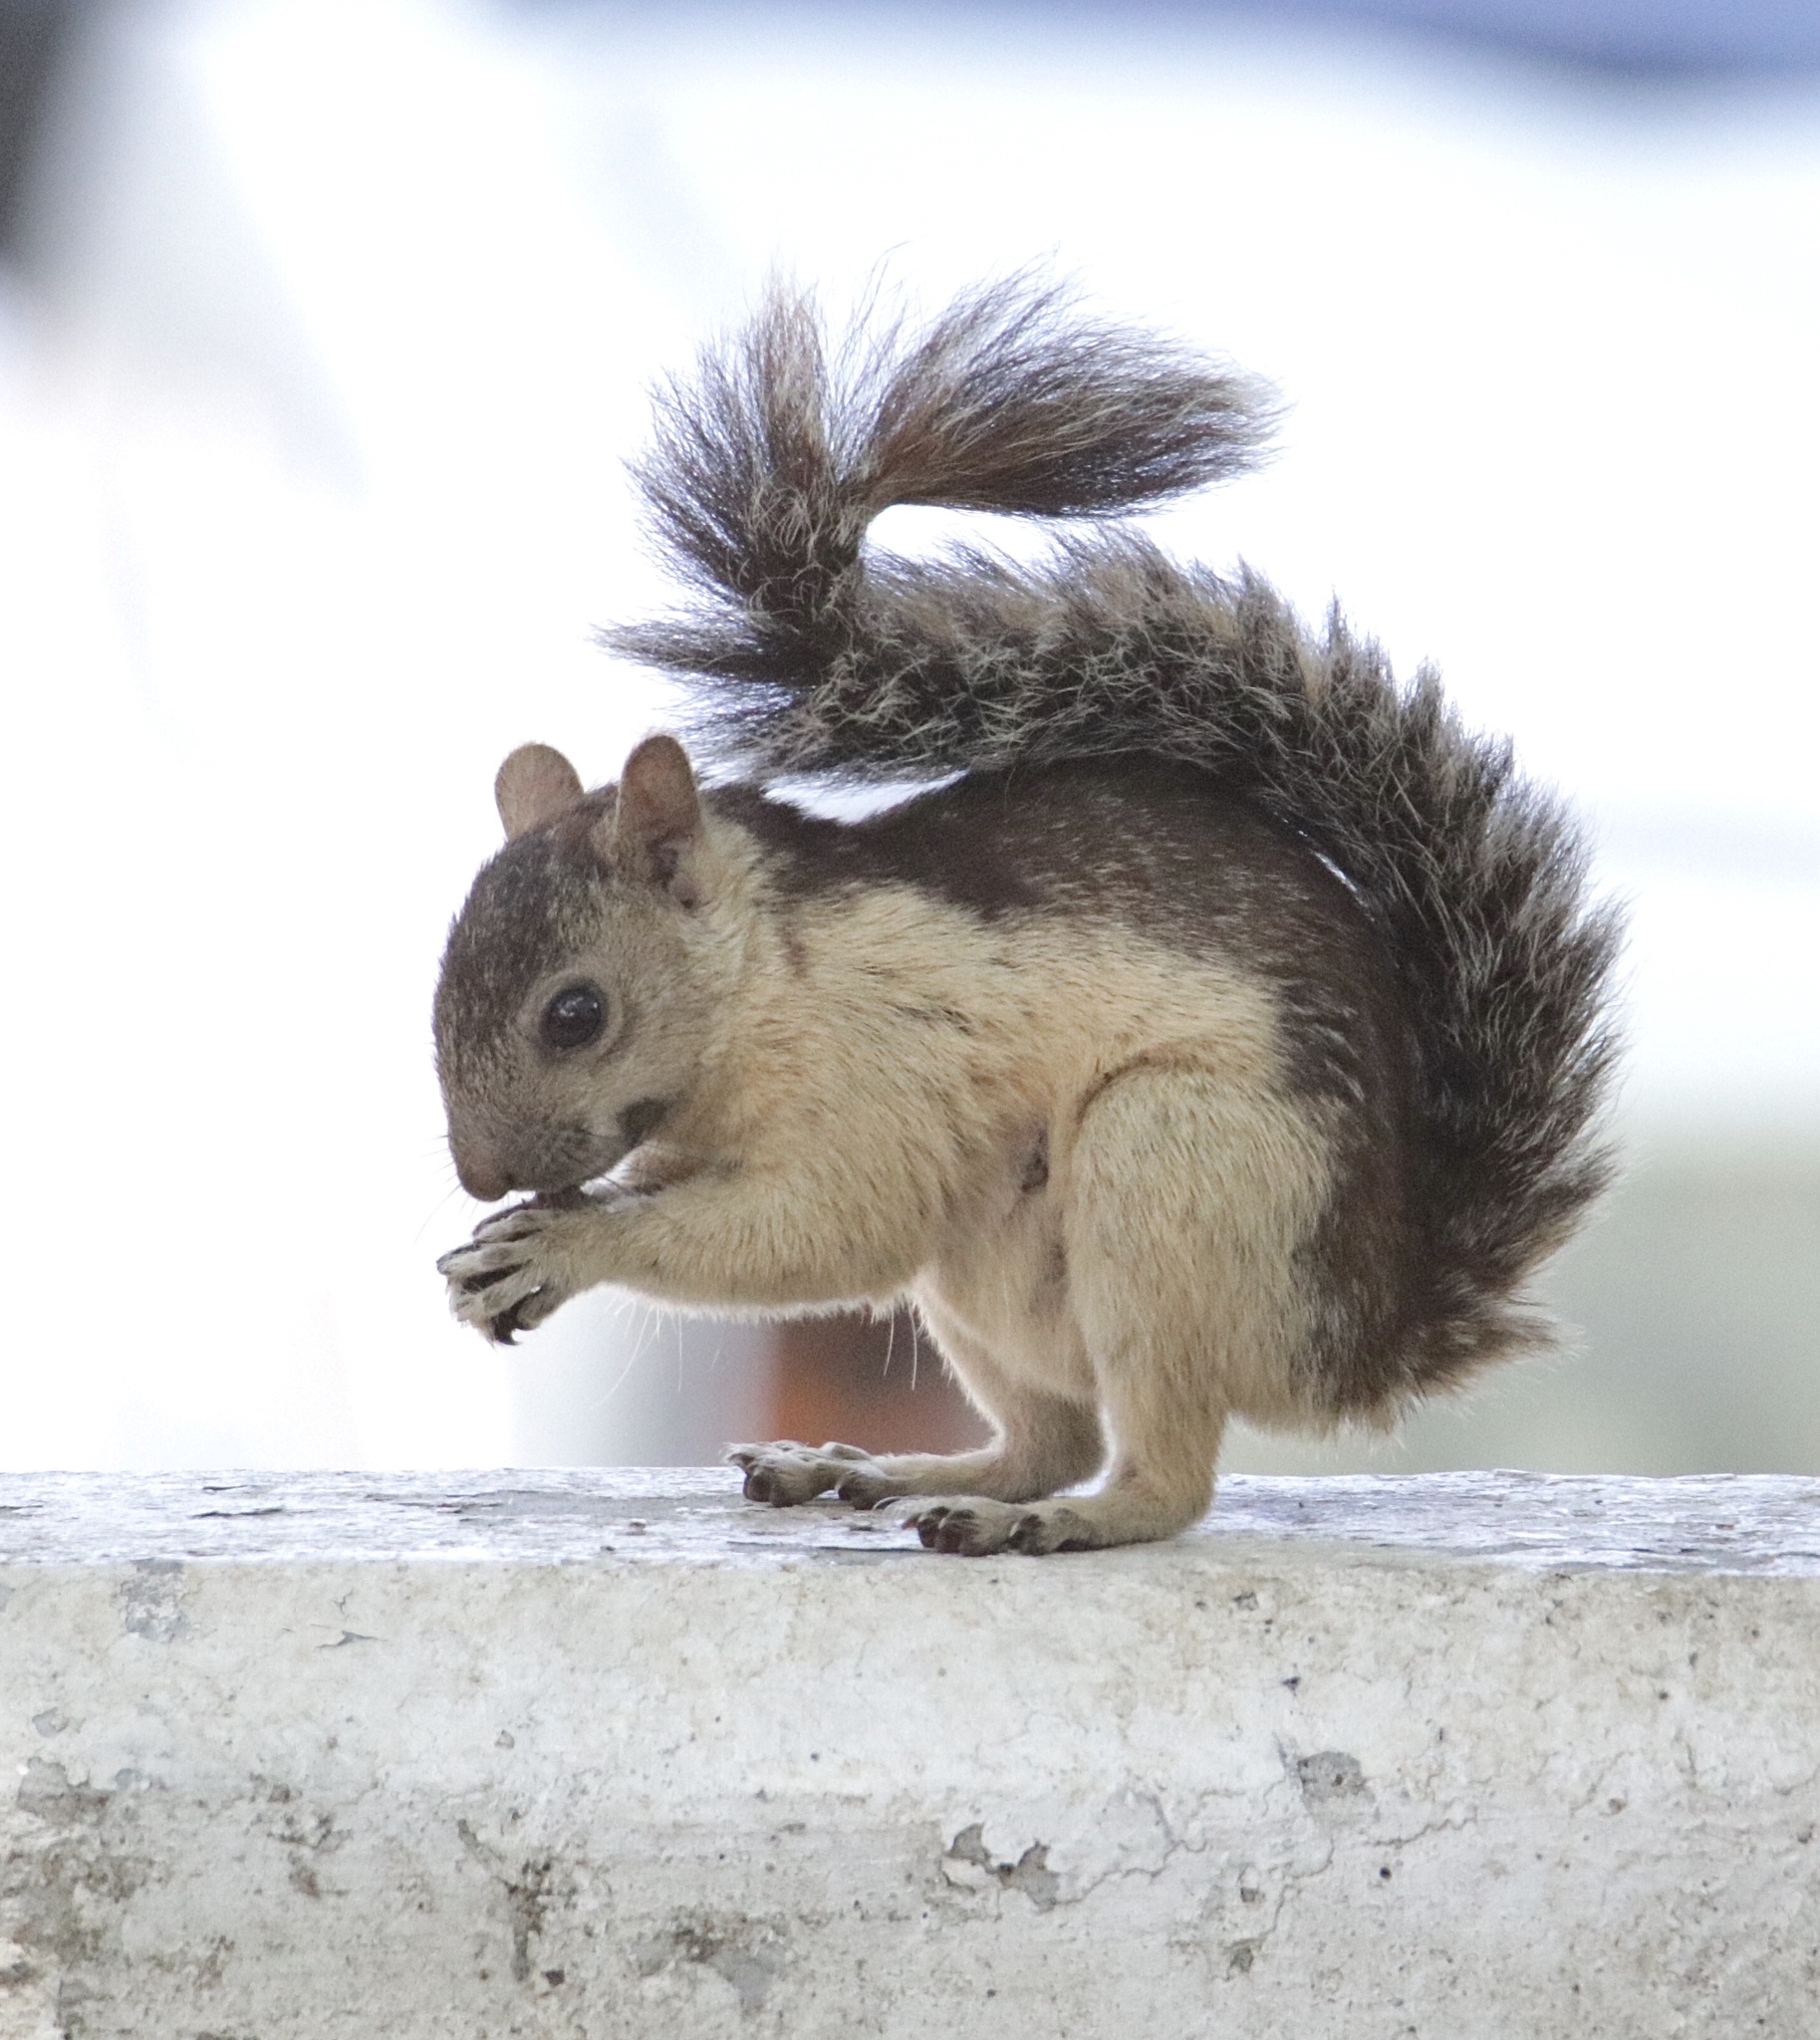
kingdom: Animalia
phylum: Chordata
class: Mammalia
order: Rodentia
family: Sciuridae
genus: Sciurus
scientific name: Sciurus variegatoides
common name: Variegated squirrel
